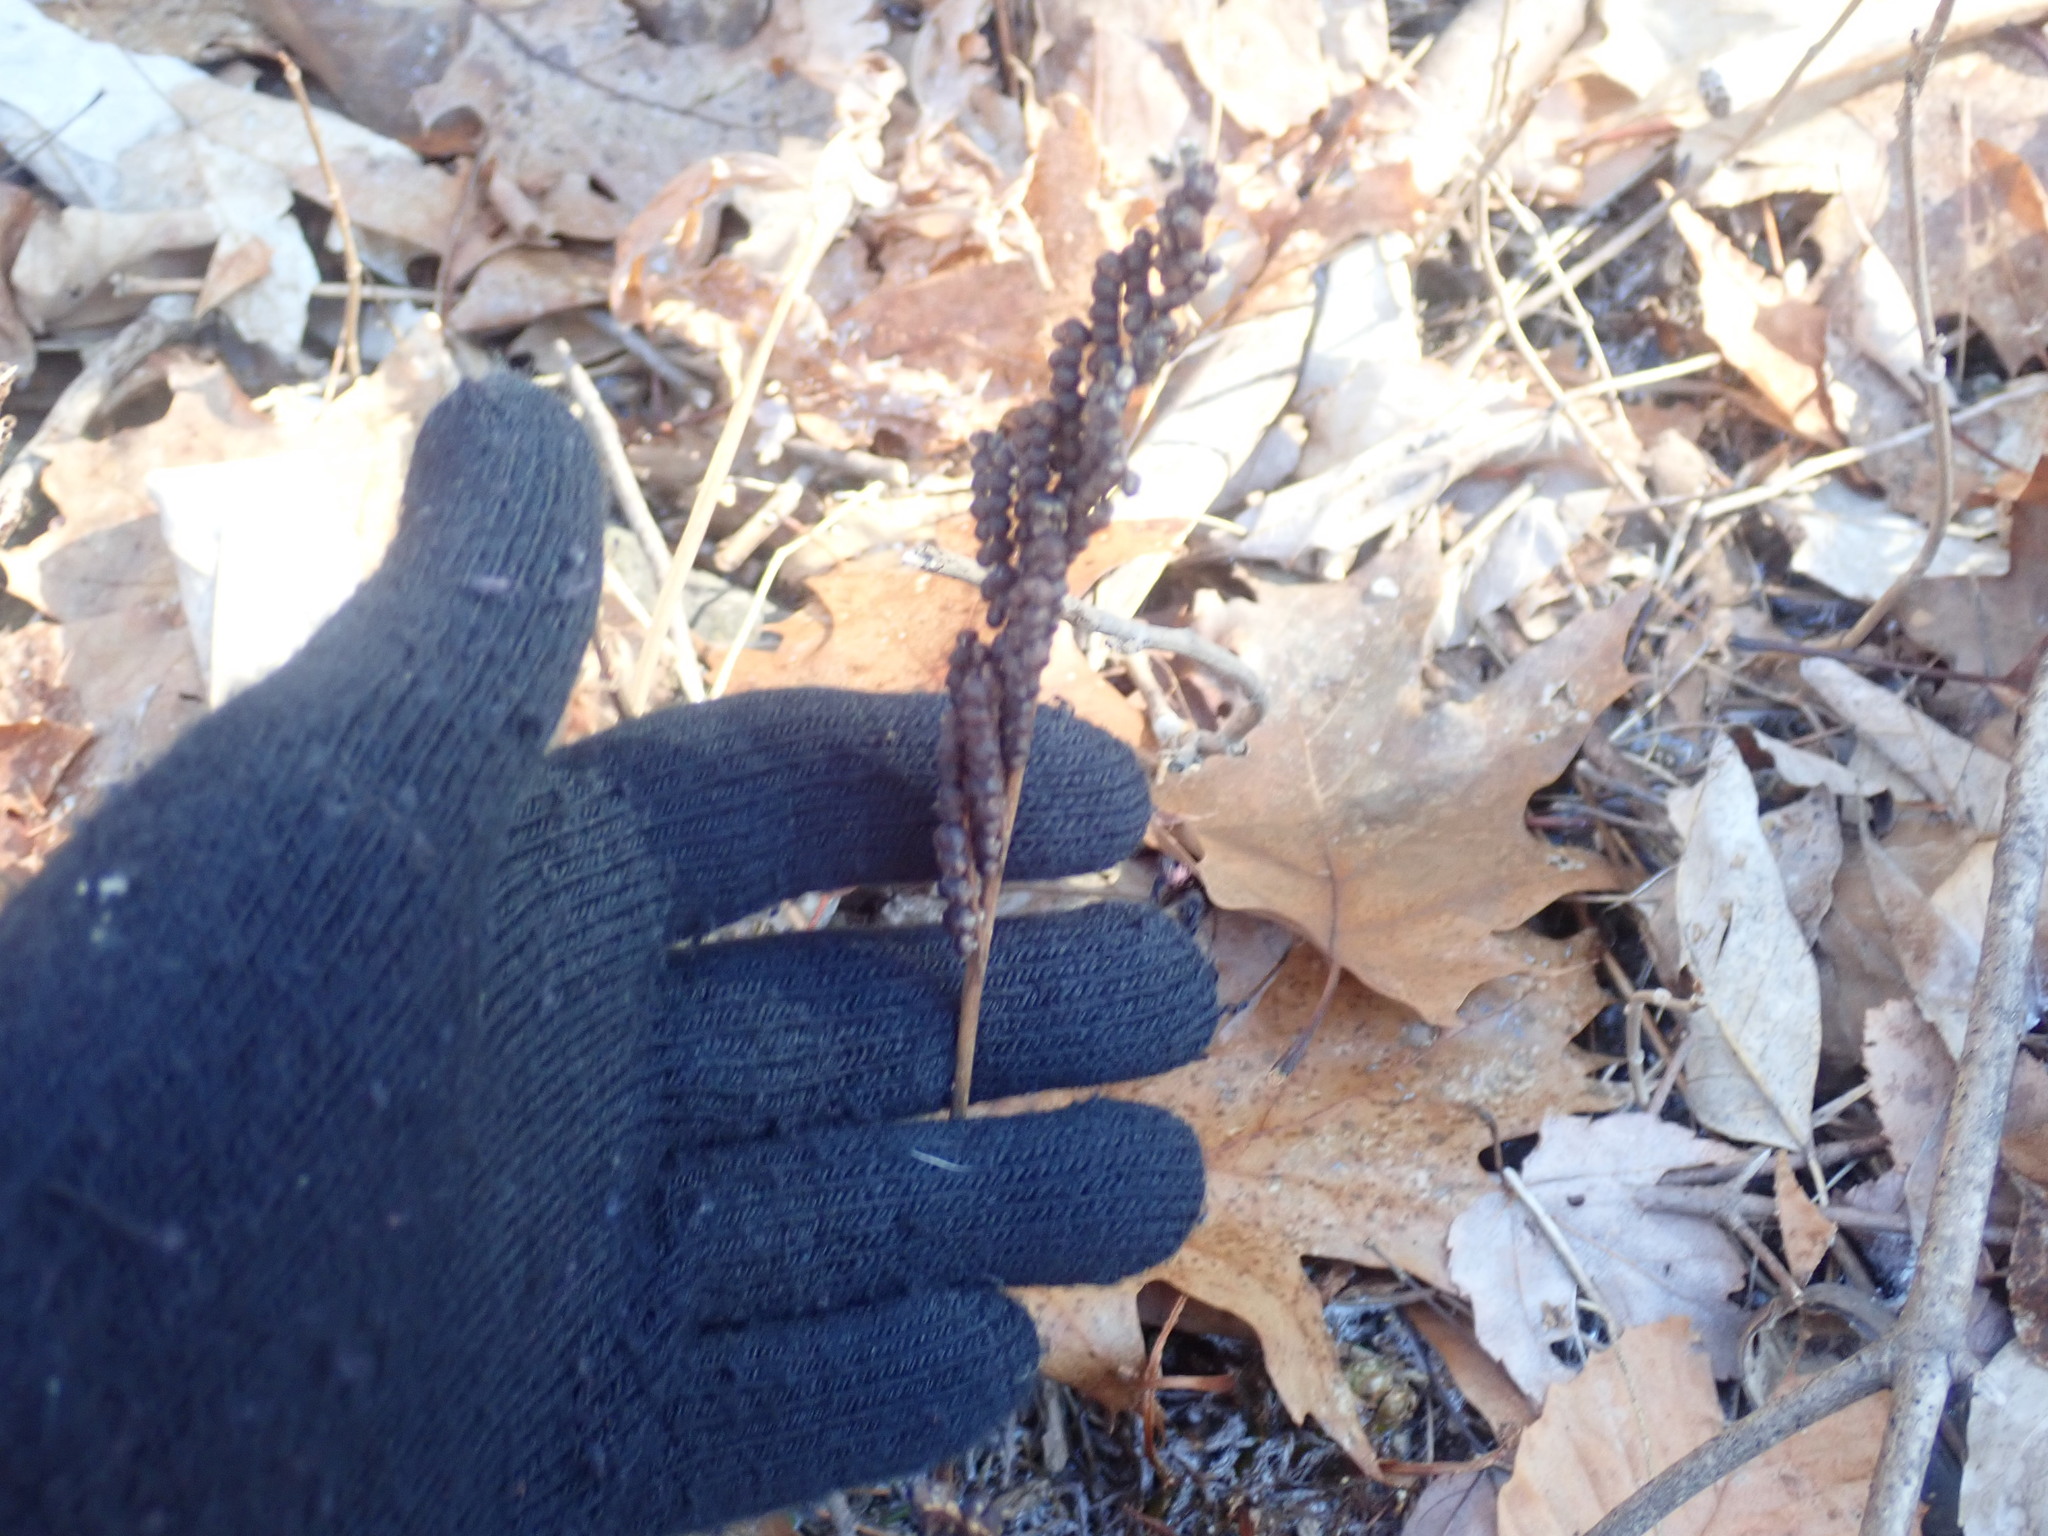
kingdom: Plantae
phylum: Tracheophyta
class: Polypodiopsida
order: Polypodiales
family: Onocleaceae
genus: Onoclea
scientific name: Onoclea sensibilis
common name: Sensitive fern
